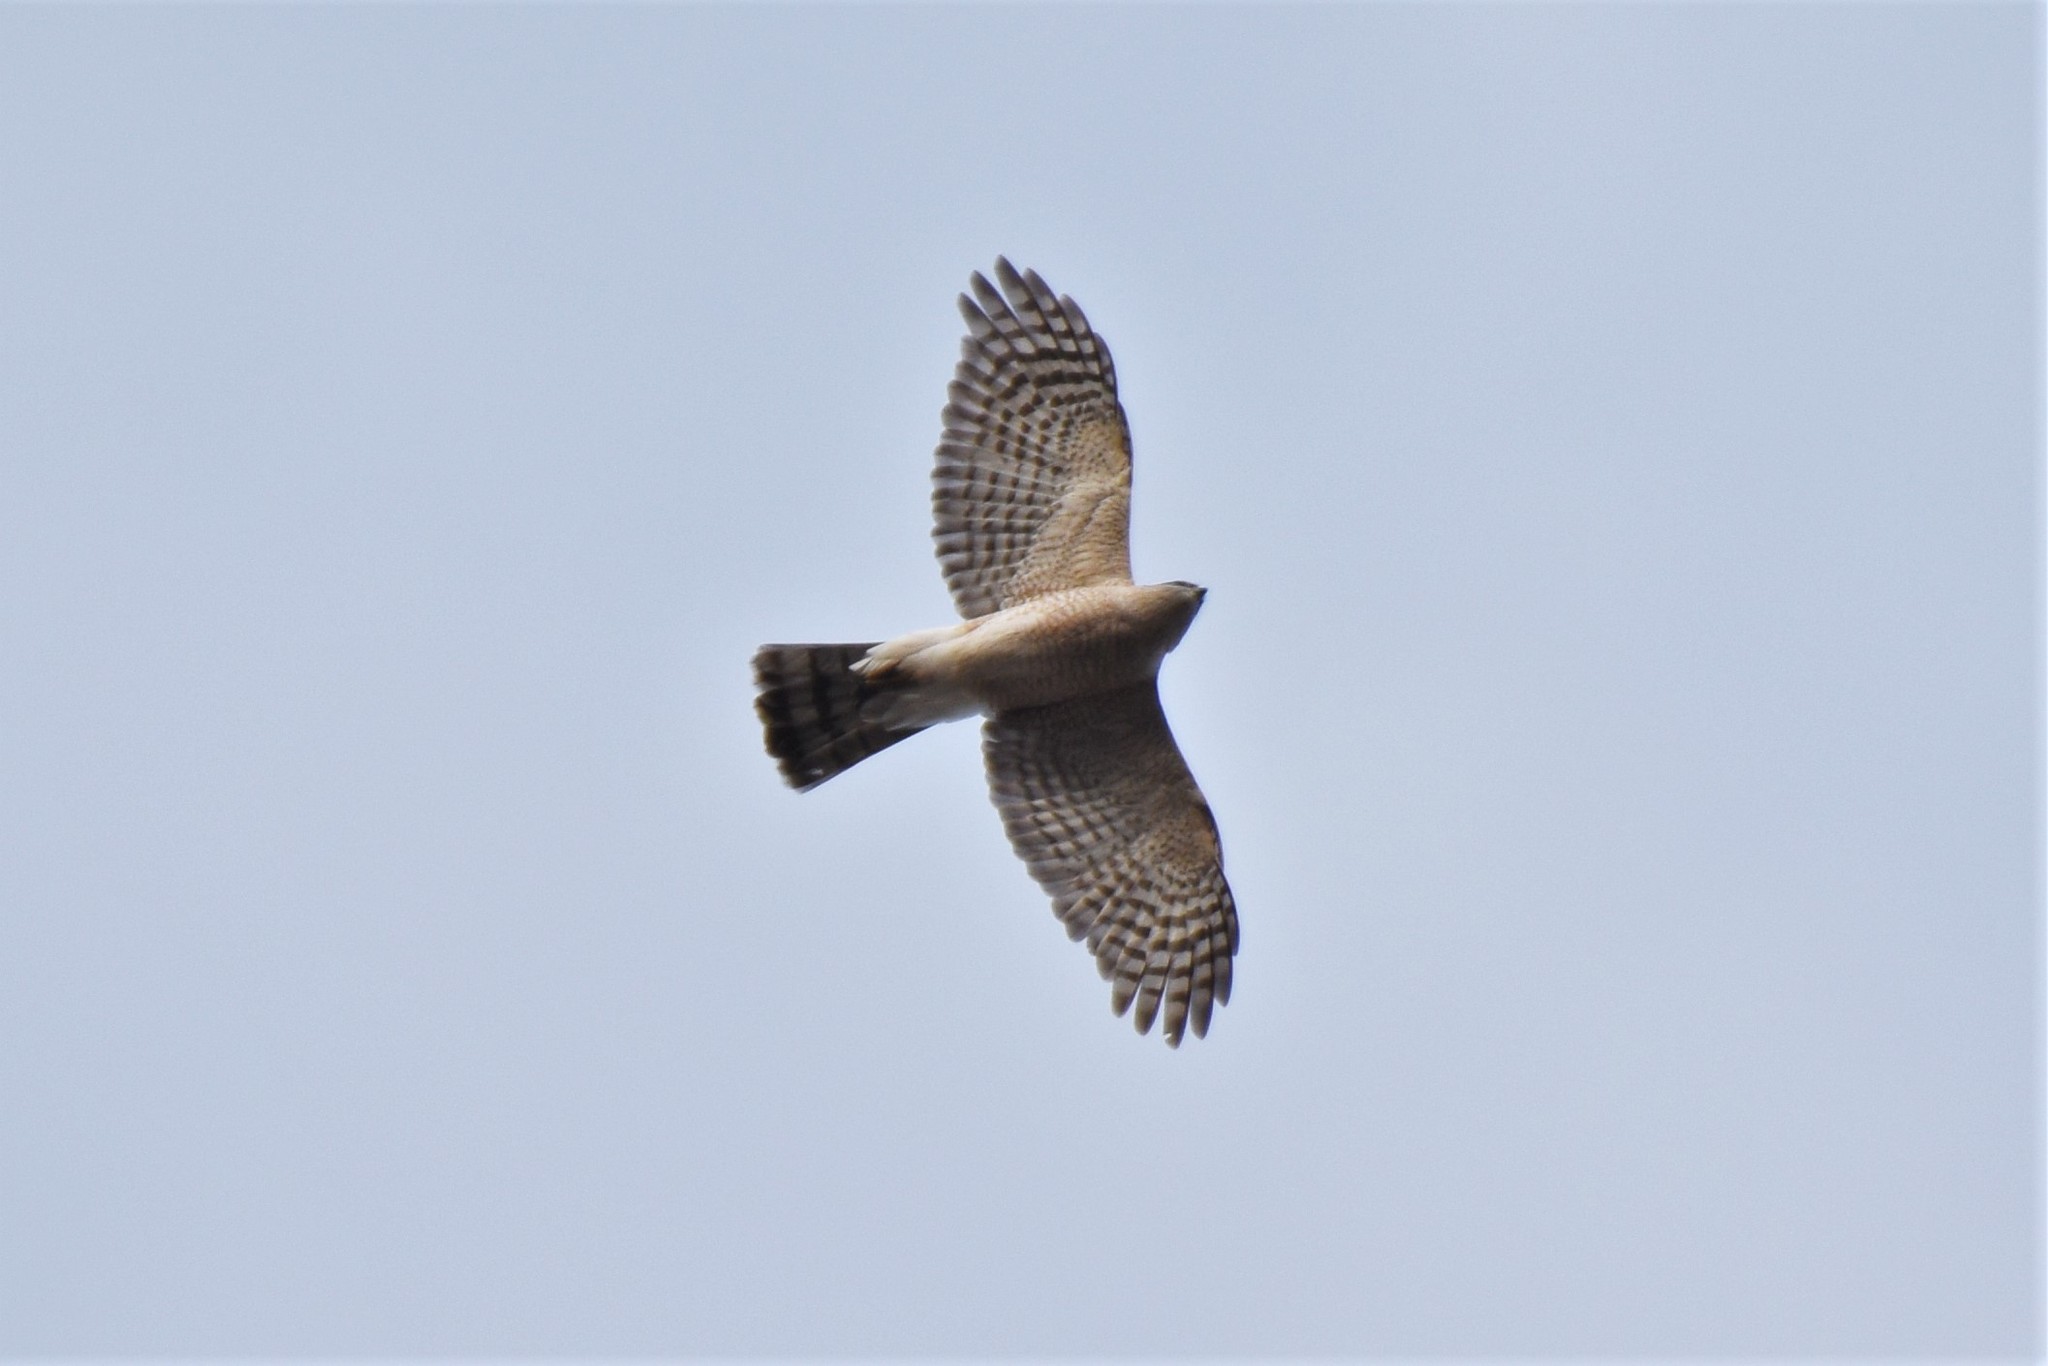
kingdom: Animalia
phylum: Chordata
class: Aves
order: Accipitriformes
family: Accipitridae
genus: Accipiter
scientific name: Accipiter striatus
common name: Sharp-shinned hawk
